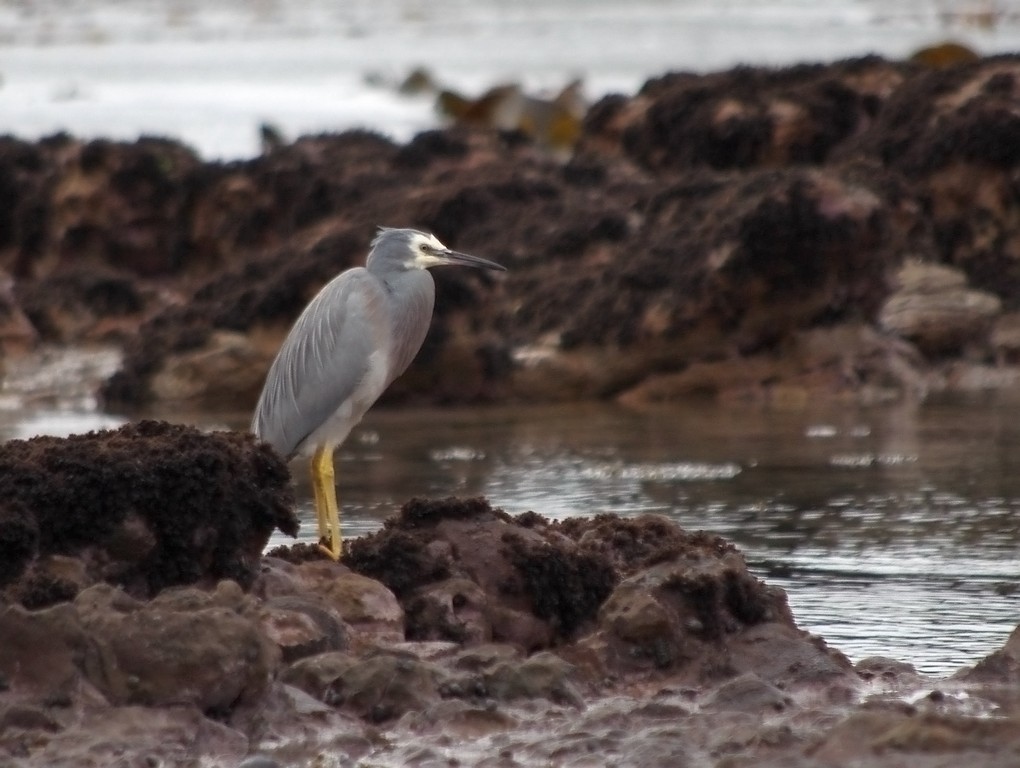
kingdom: Animalia
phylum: Chordata
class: Aves
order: Pelecaniformes
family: Ardeidae
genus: Egretta
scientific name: Egretta novaehollandiae
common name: White-faced heron
